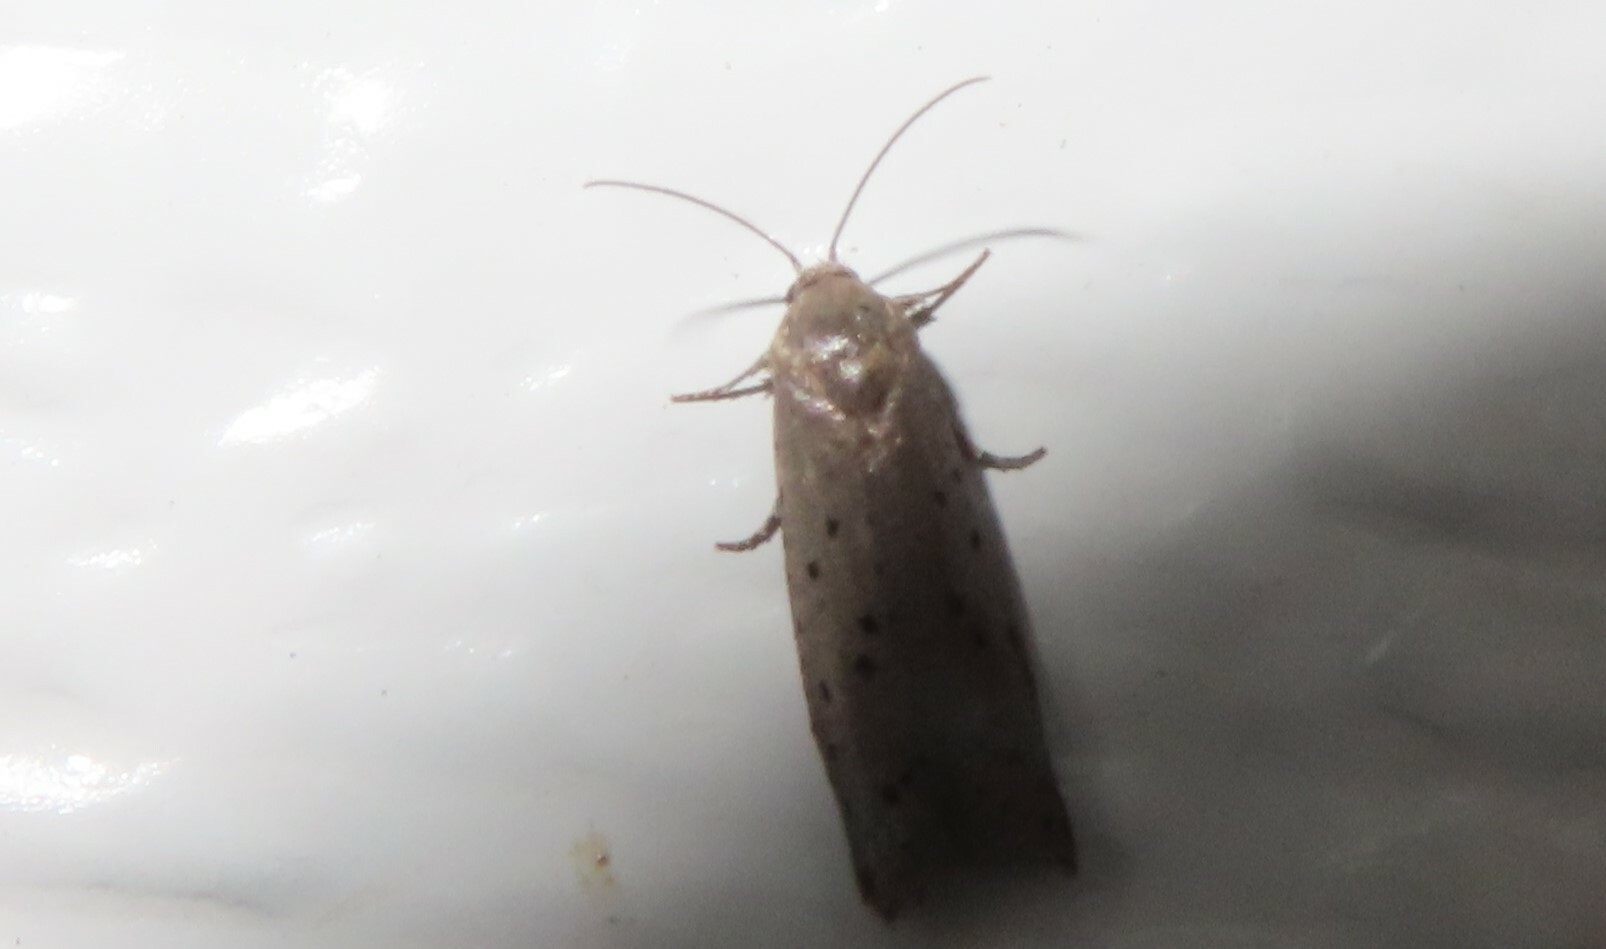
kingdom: Animalia
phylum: Arthropoda
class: Insecta
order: Lepidoptera
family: Galacticidae
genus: Homadaula
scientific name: Homadaula anisocentra
